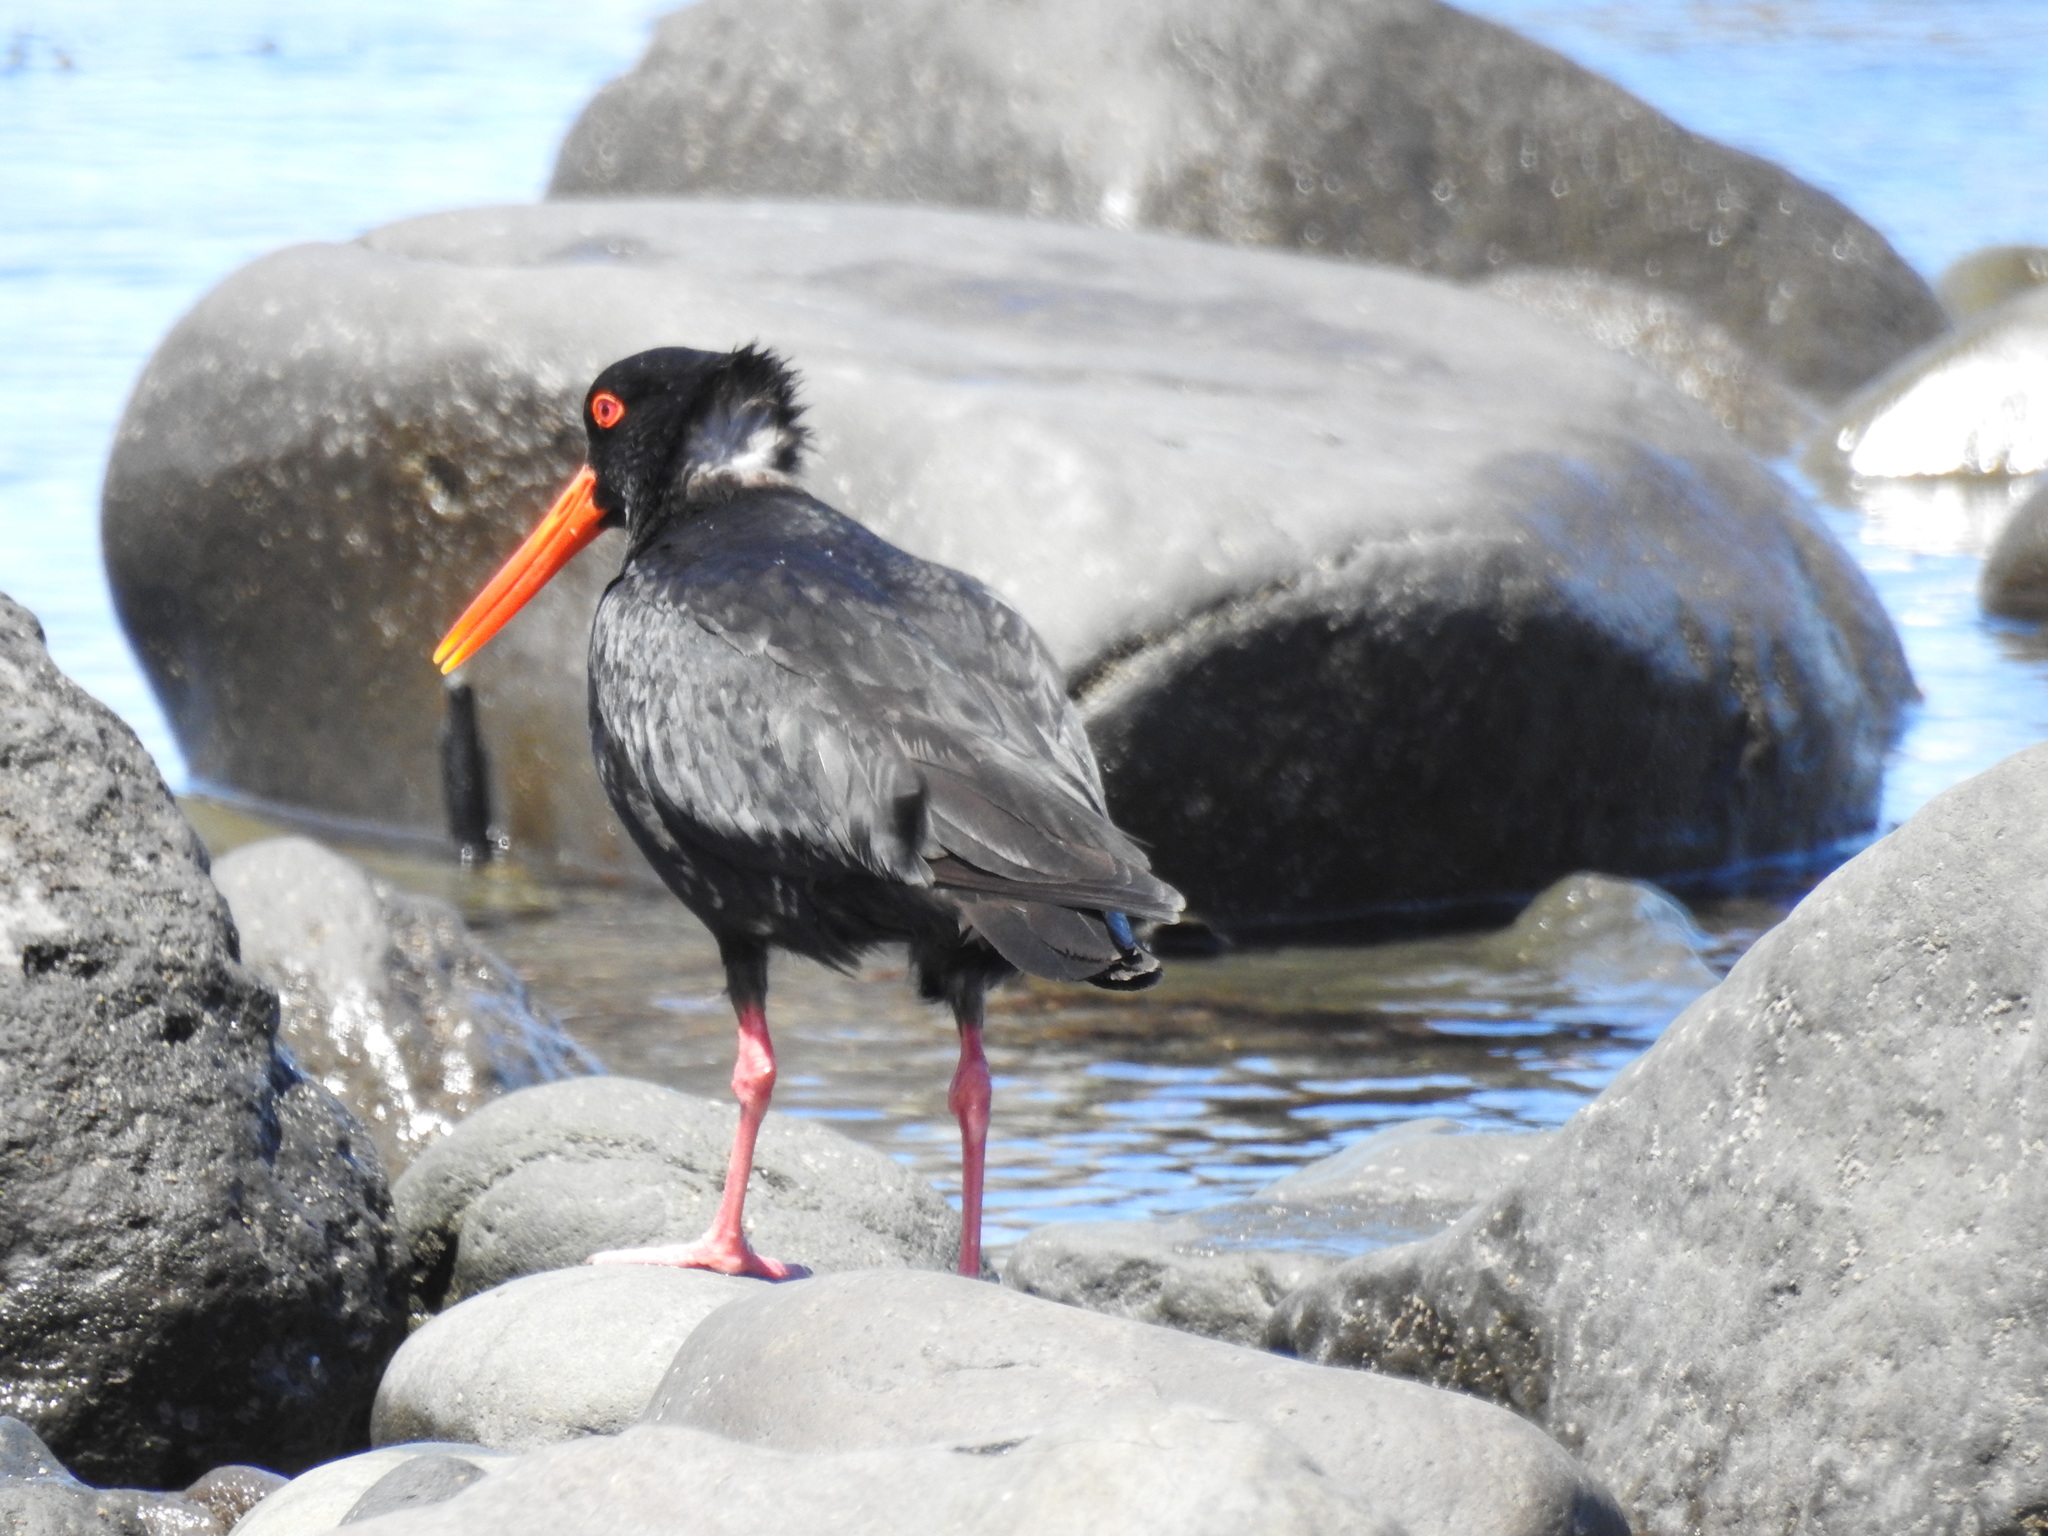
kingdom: Animalia
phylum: Chordata
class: Aves
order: Charadriiformes
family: Haematopodidae
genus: Haematopus
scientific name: Haematopus unicolor
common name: Variable oystercatcher
